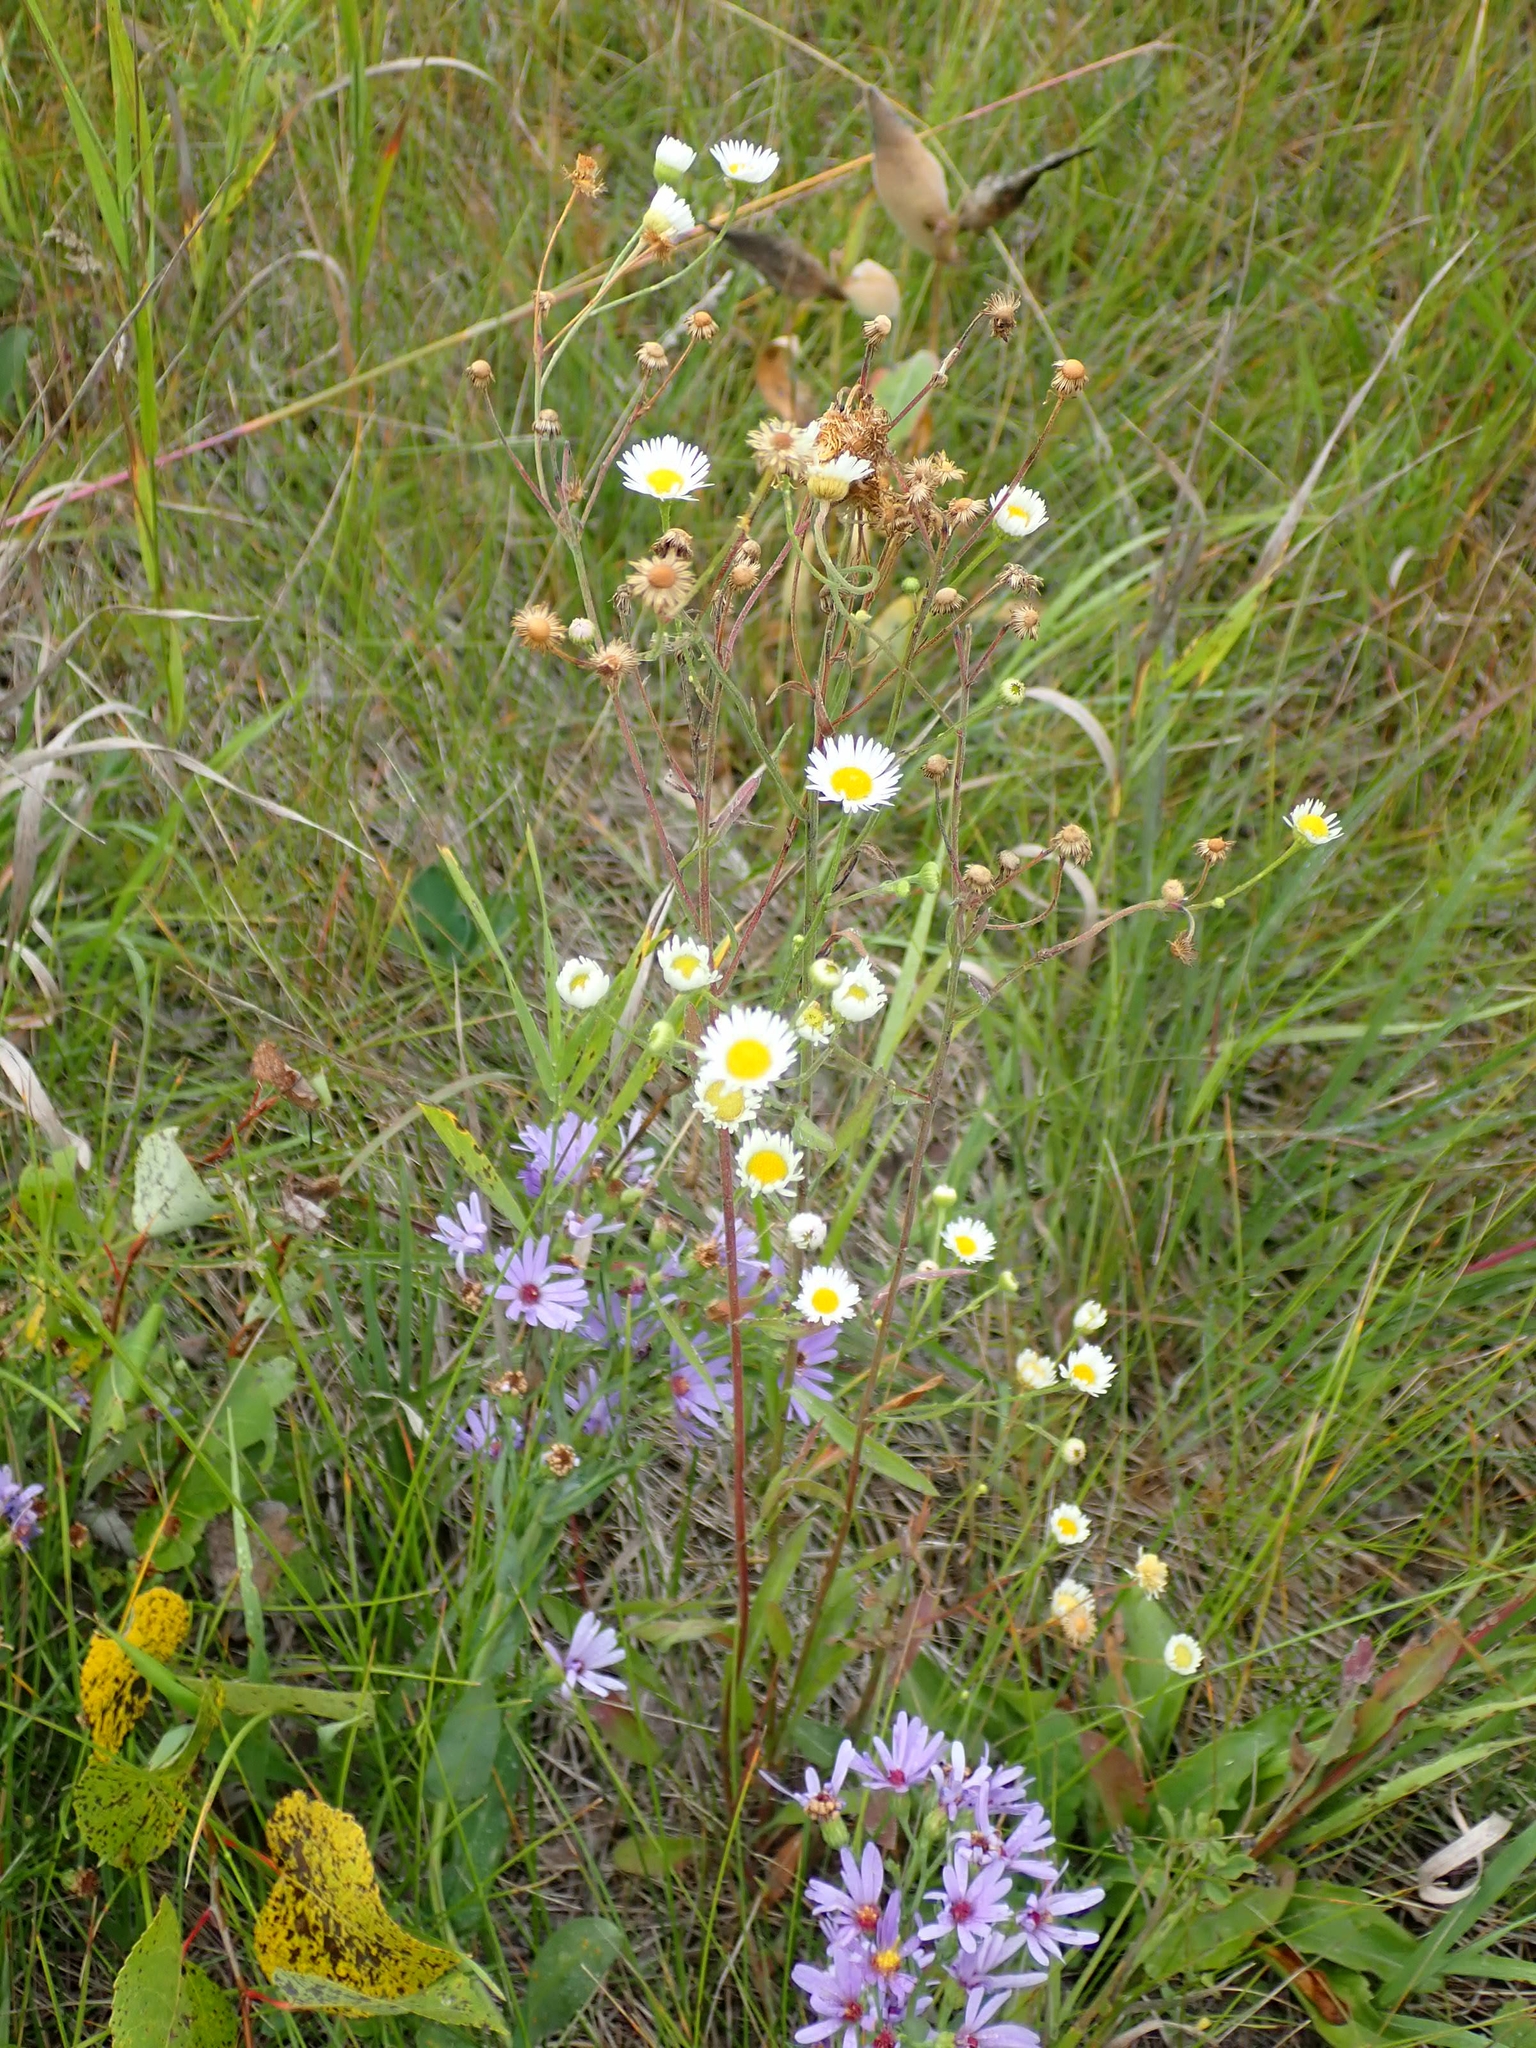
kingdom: Plantae
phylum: Tracheophyta
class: Magnoliopsida
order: Asterales
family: Asteraceae
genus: Erigeron
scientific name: Erigeron strigosus
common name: Common eastern fleabane
